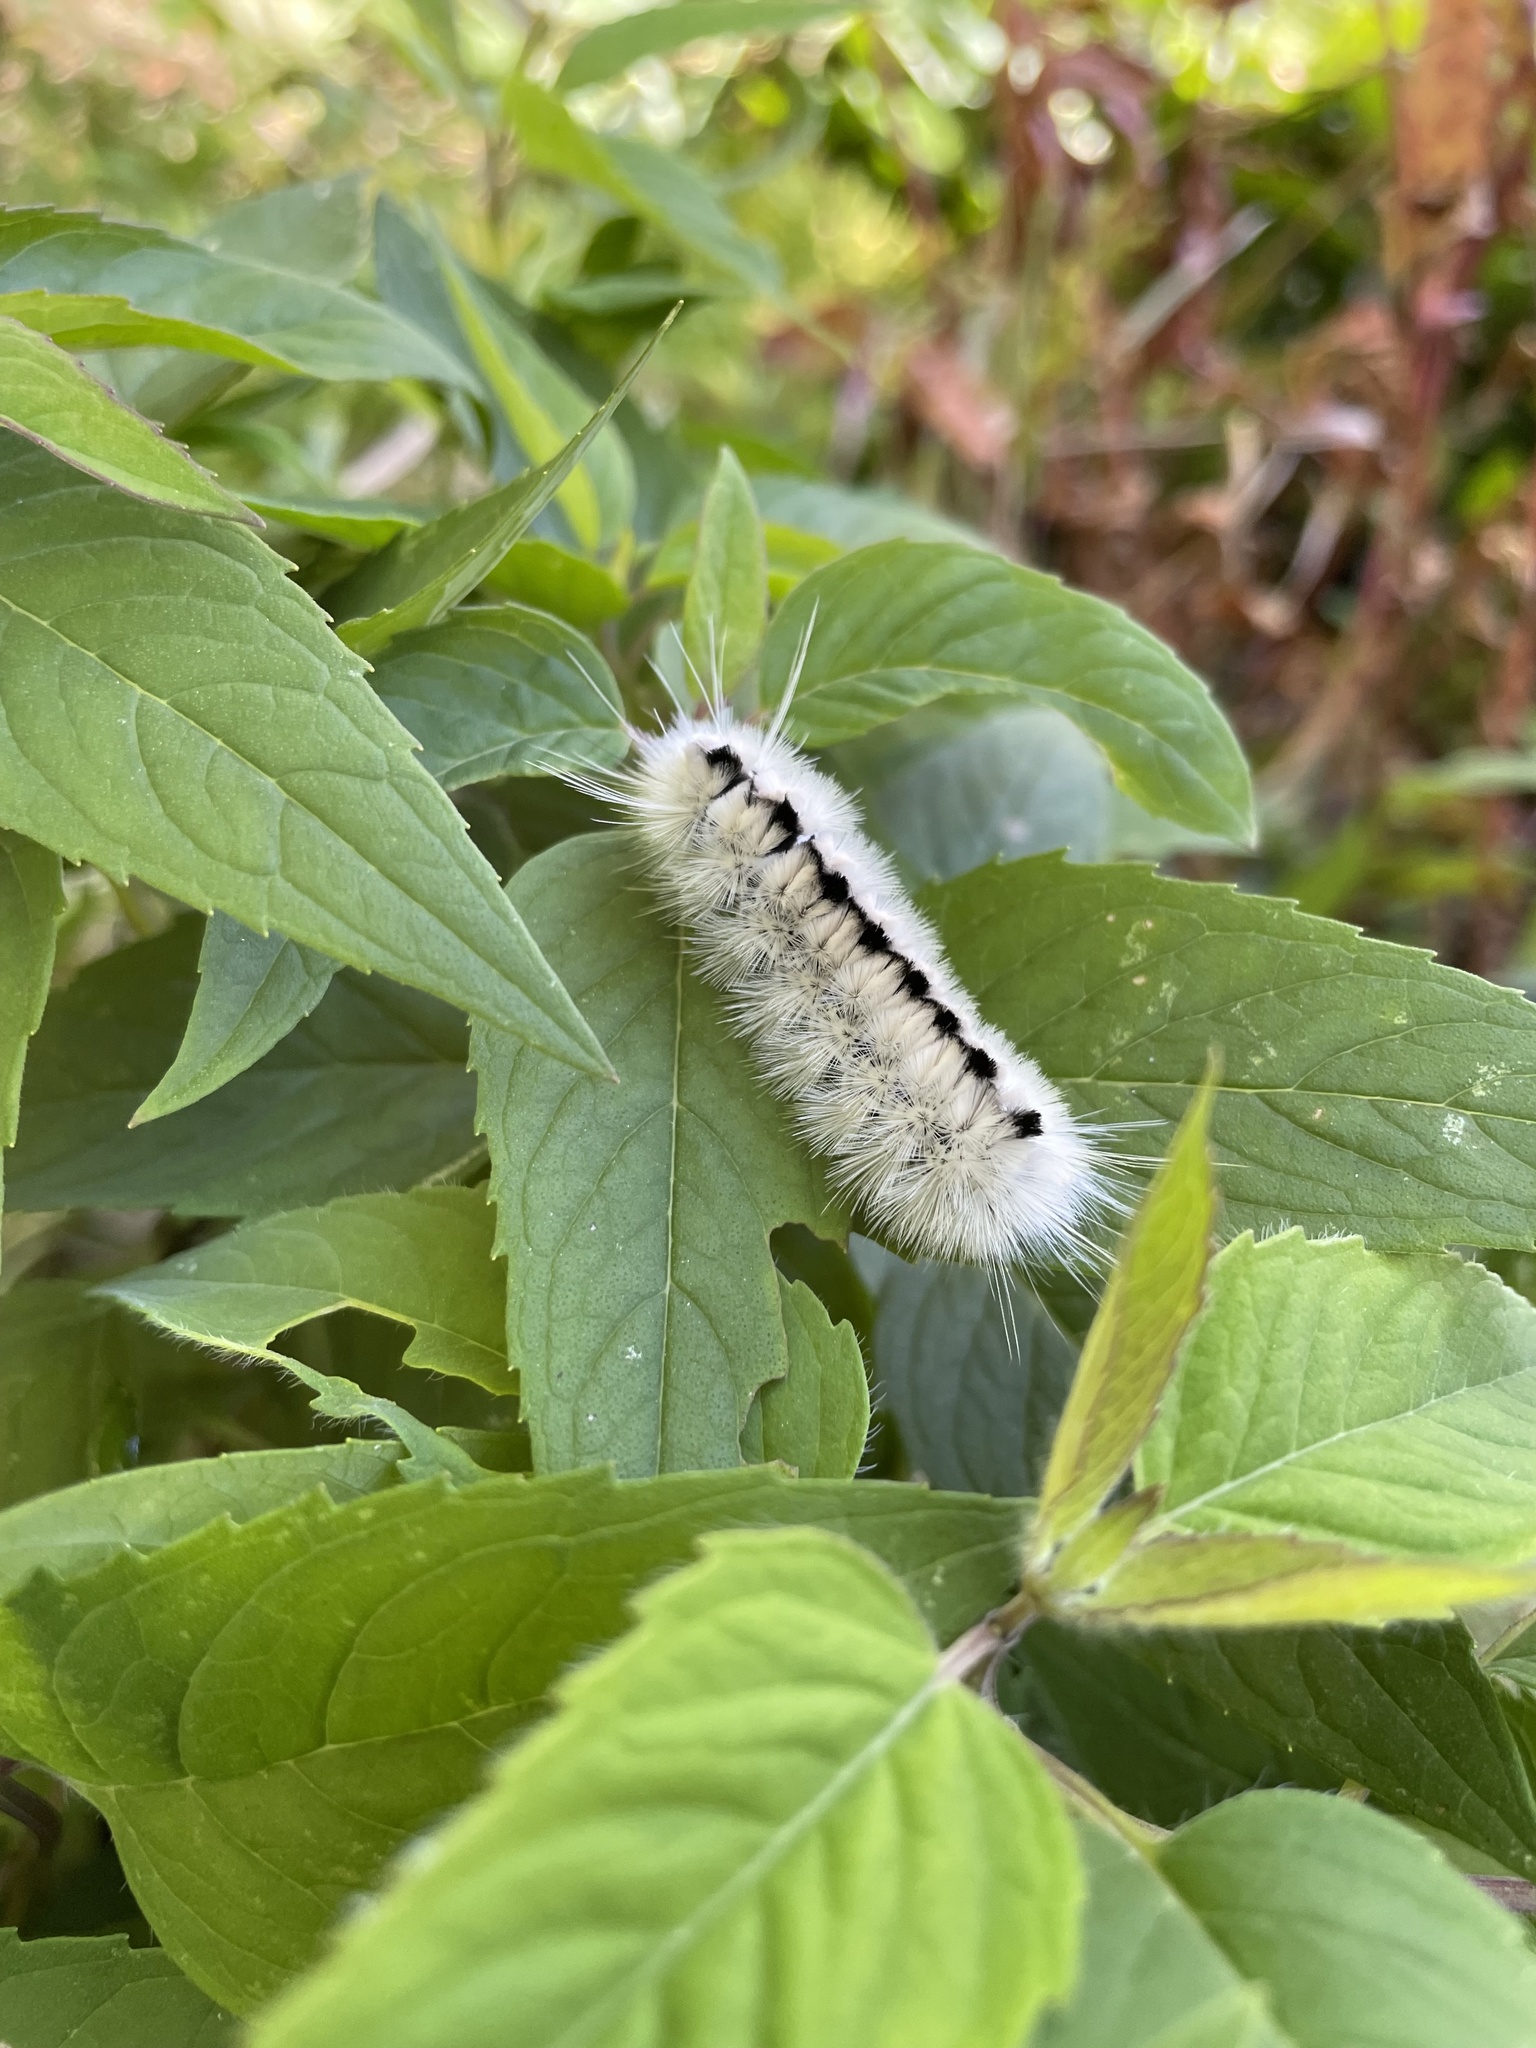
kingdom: Animalia
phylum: Arthropoda
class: Insecta
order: Lepidoptera
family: Erebidae
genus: Lophocampa
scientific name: Lophocampa caryae
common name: Hickory tussock moth
